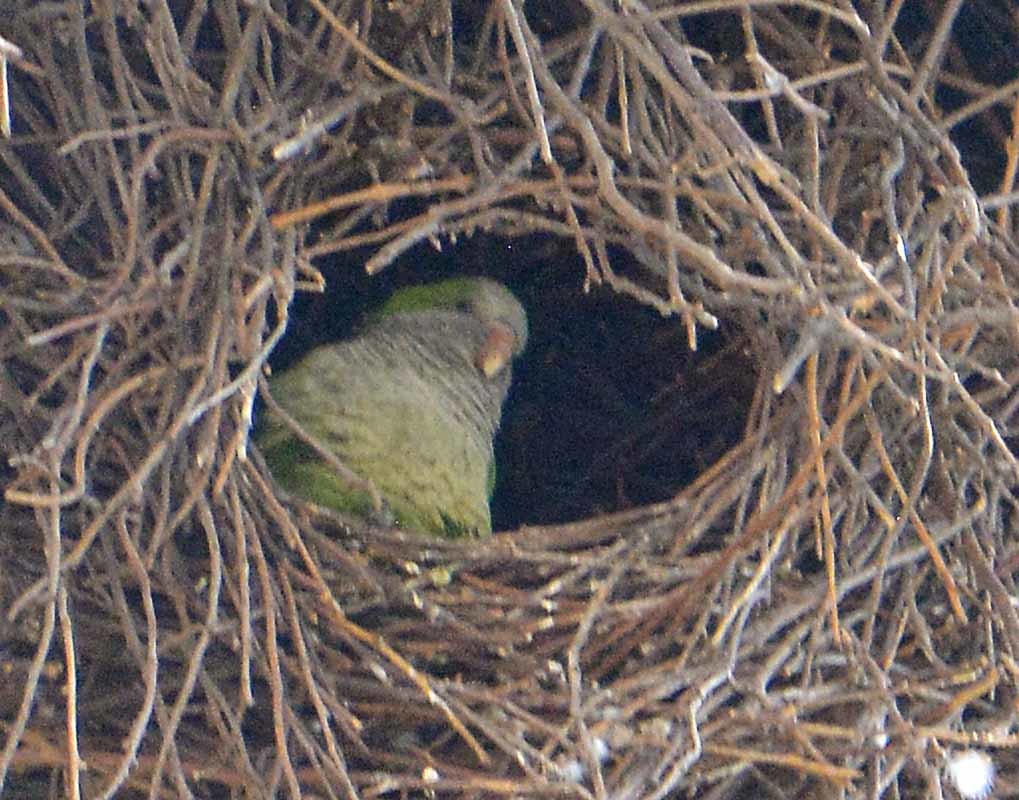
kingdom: Animalia
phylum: Chordata
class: Aves
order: Psittaciformes
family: Psittacidae
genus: Myiopsitta
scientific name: Myiopsitta monachus
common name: Monk parakeet
